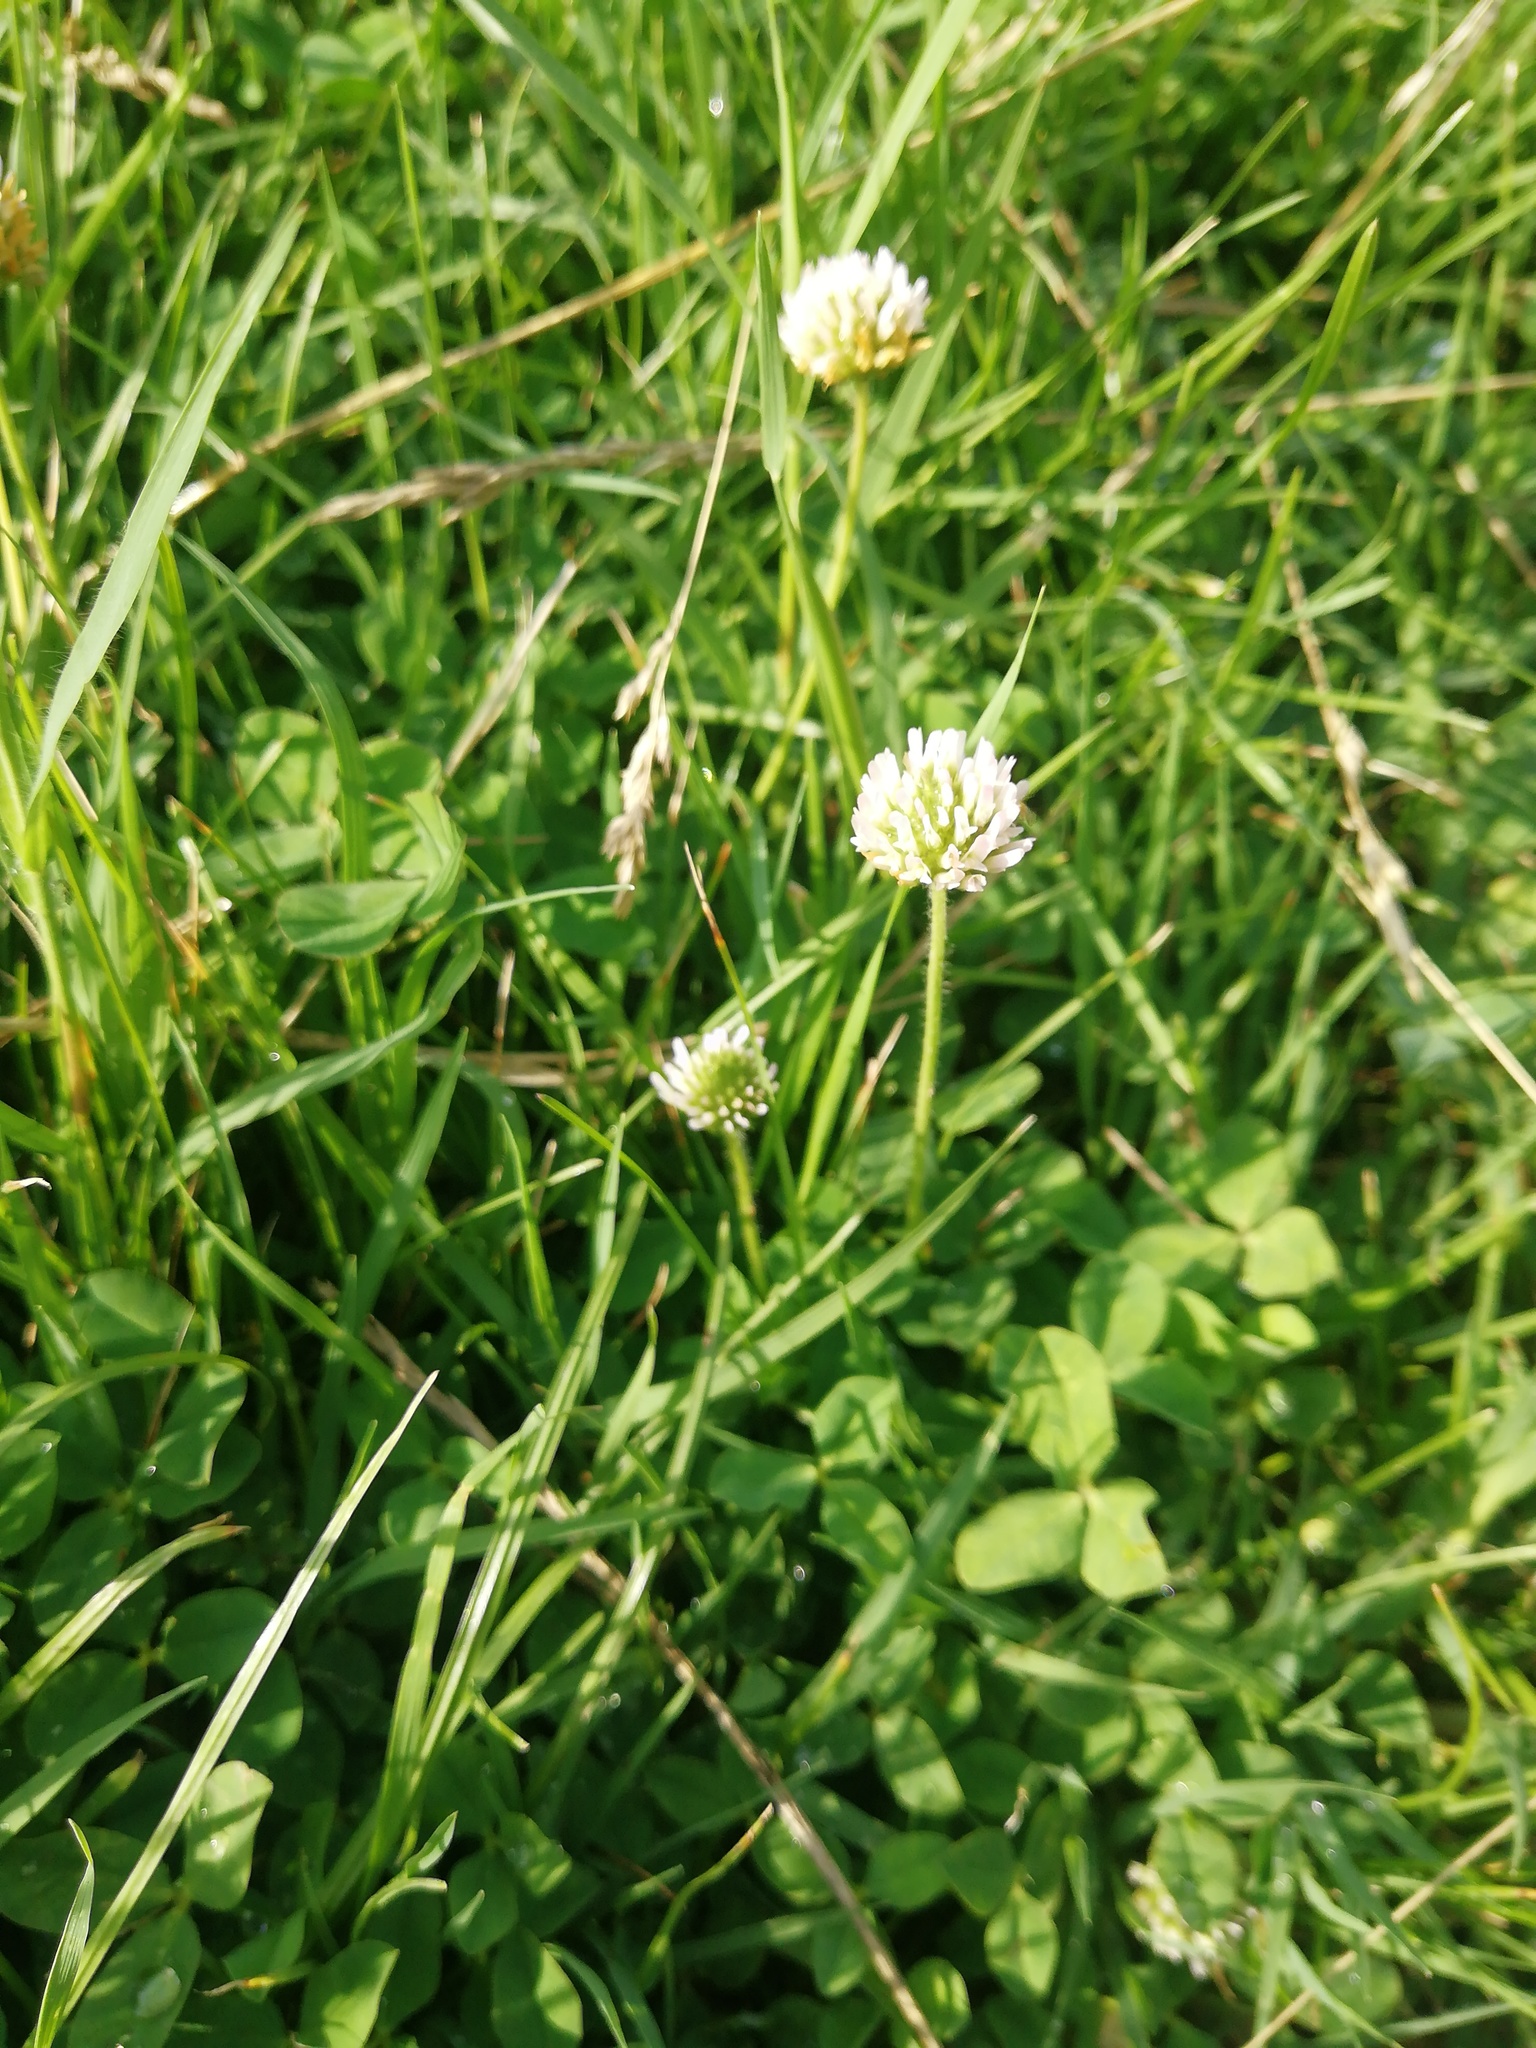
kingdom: Plantae
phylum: Tracheophyta
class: Magnoliopsida
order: Fabales
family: Fabaceae
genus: Trifolium
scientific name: Trifolium fragiferum
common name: Strawberry clover
